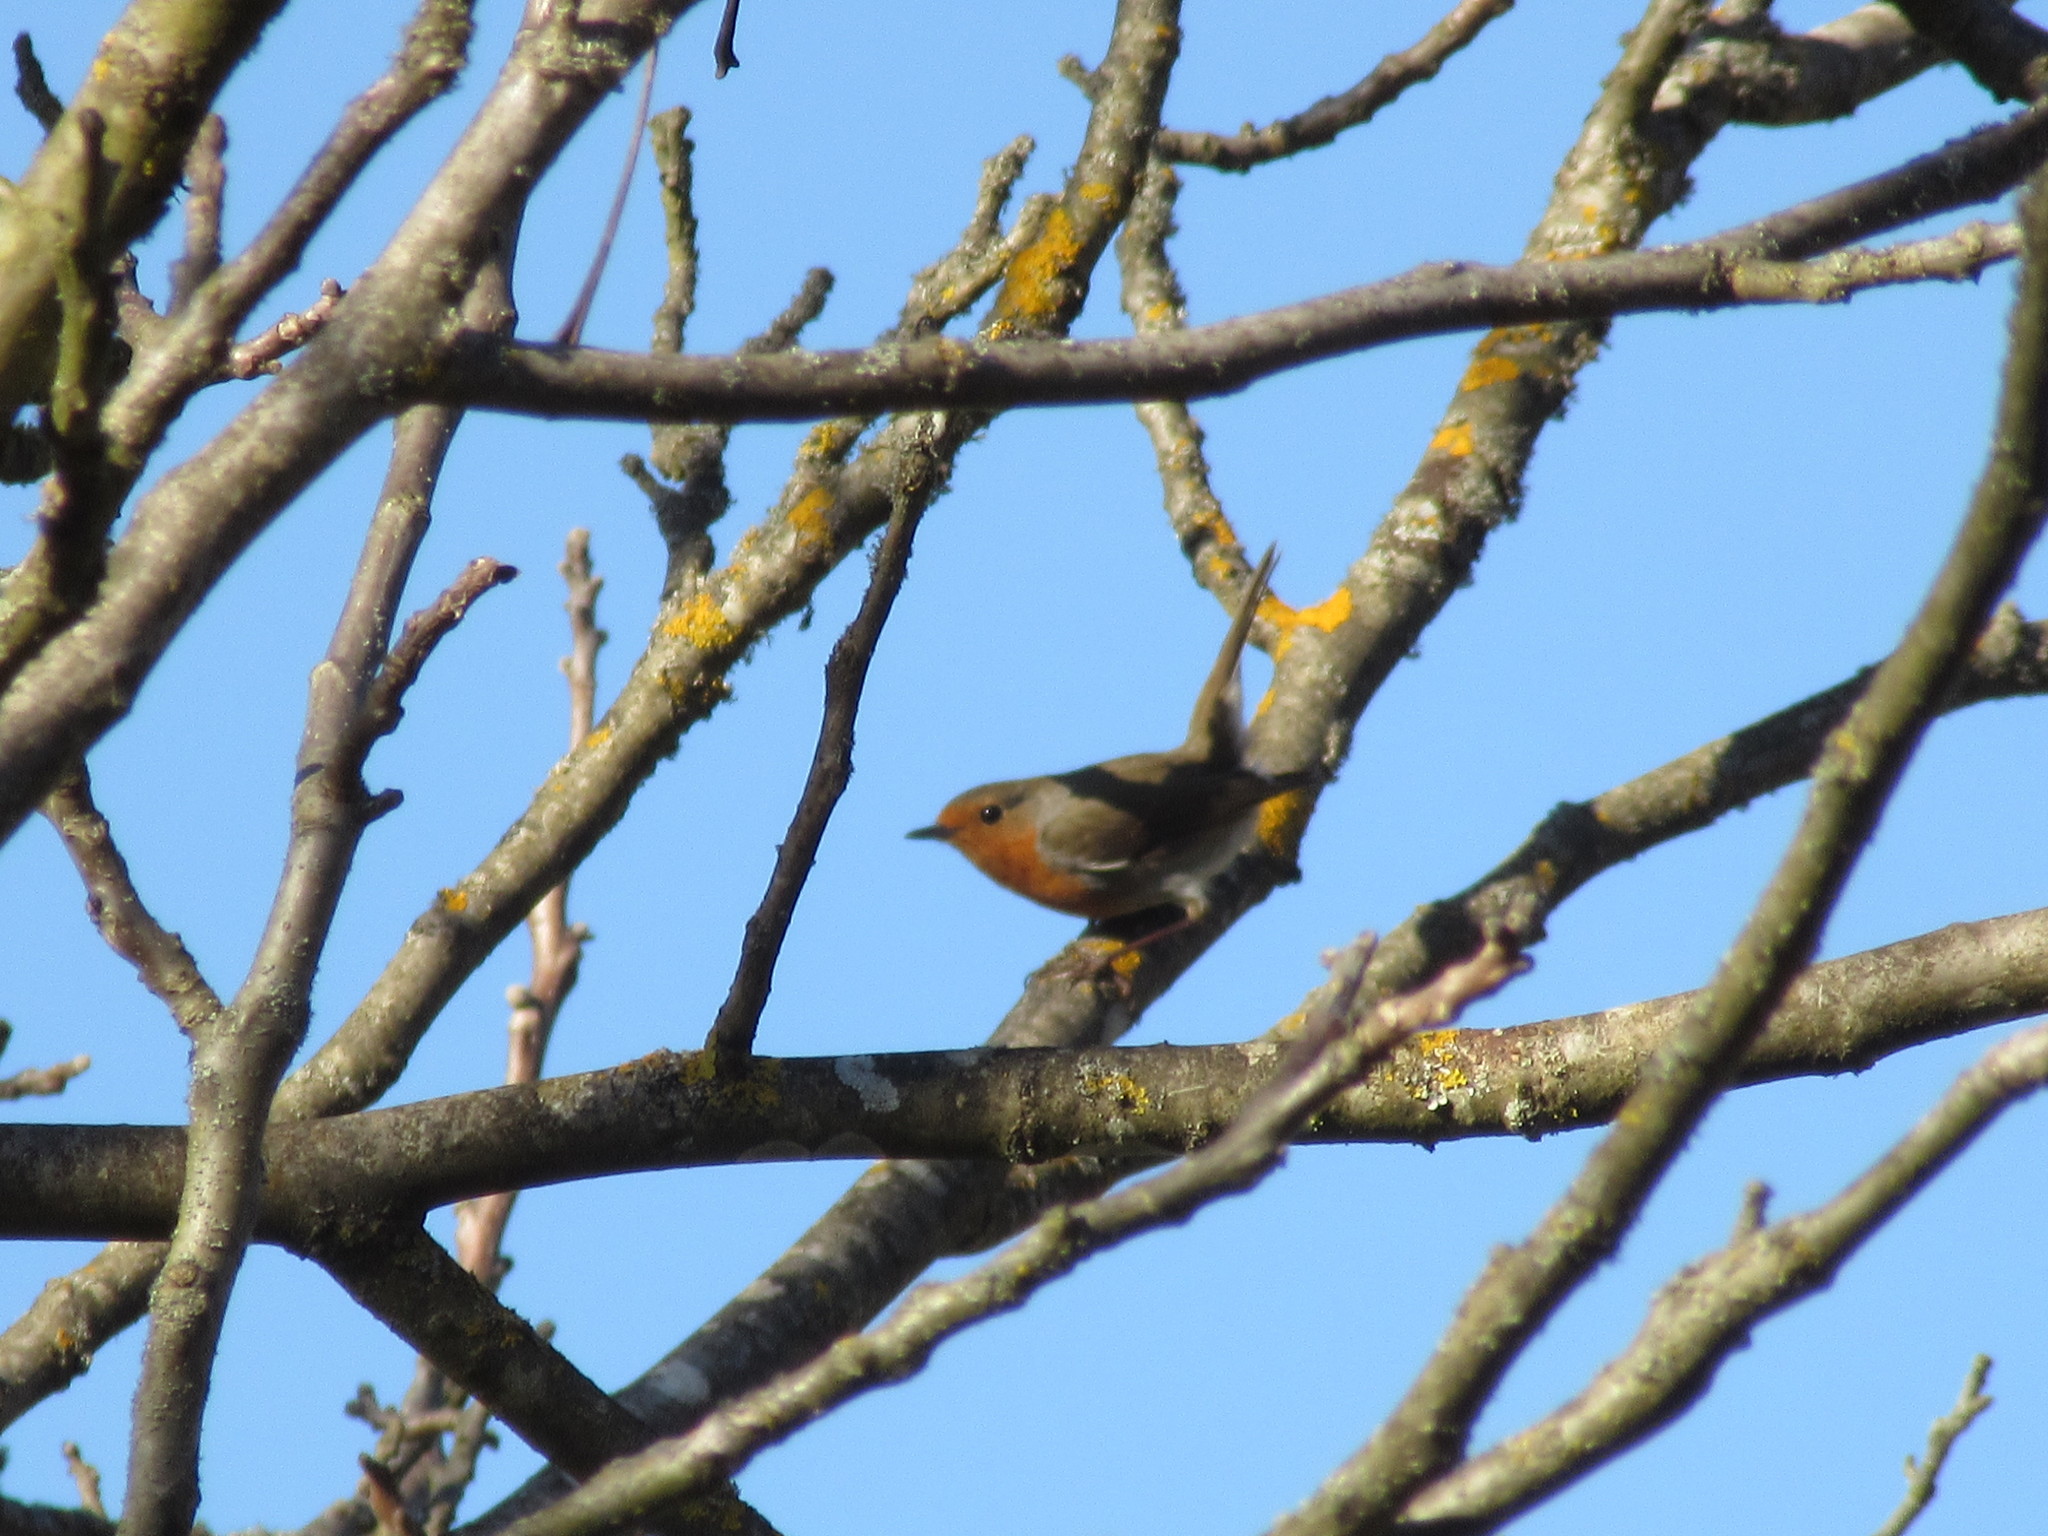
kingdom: Animalia
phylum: Chordata
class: Aves
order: Passeriformes
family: Muscicapidae
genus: Erithacus
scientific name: Erithacus rubecula
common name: European robin
